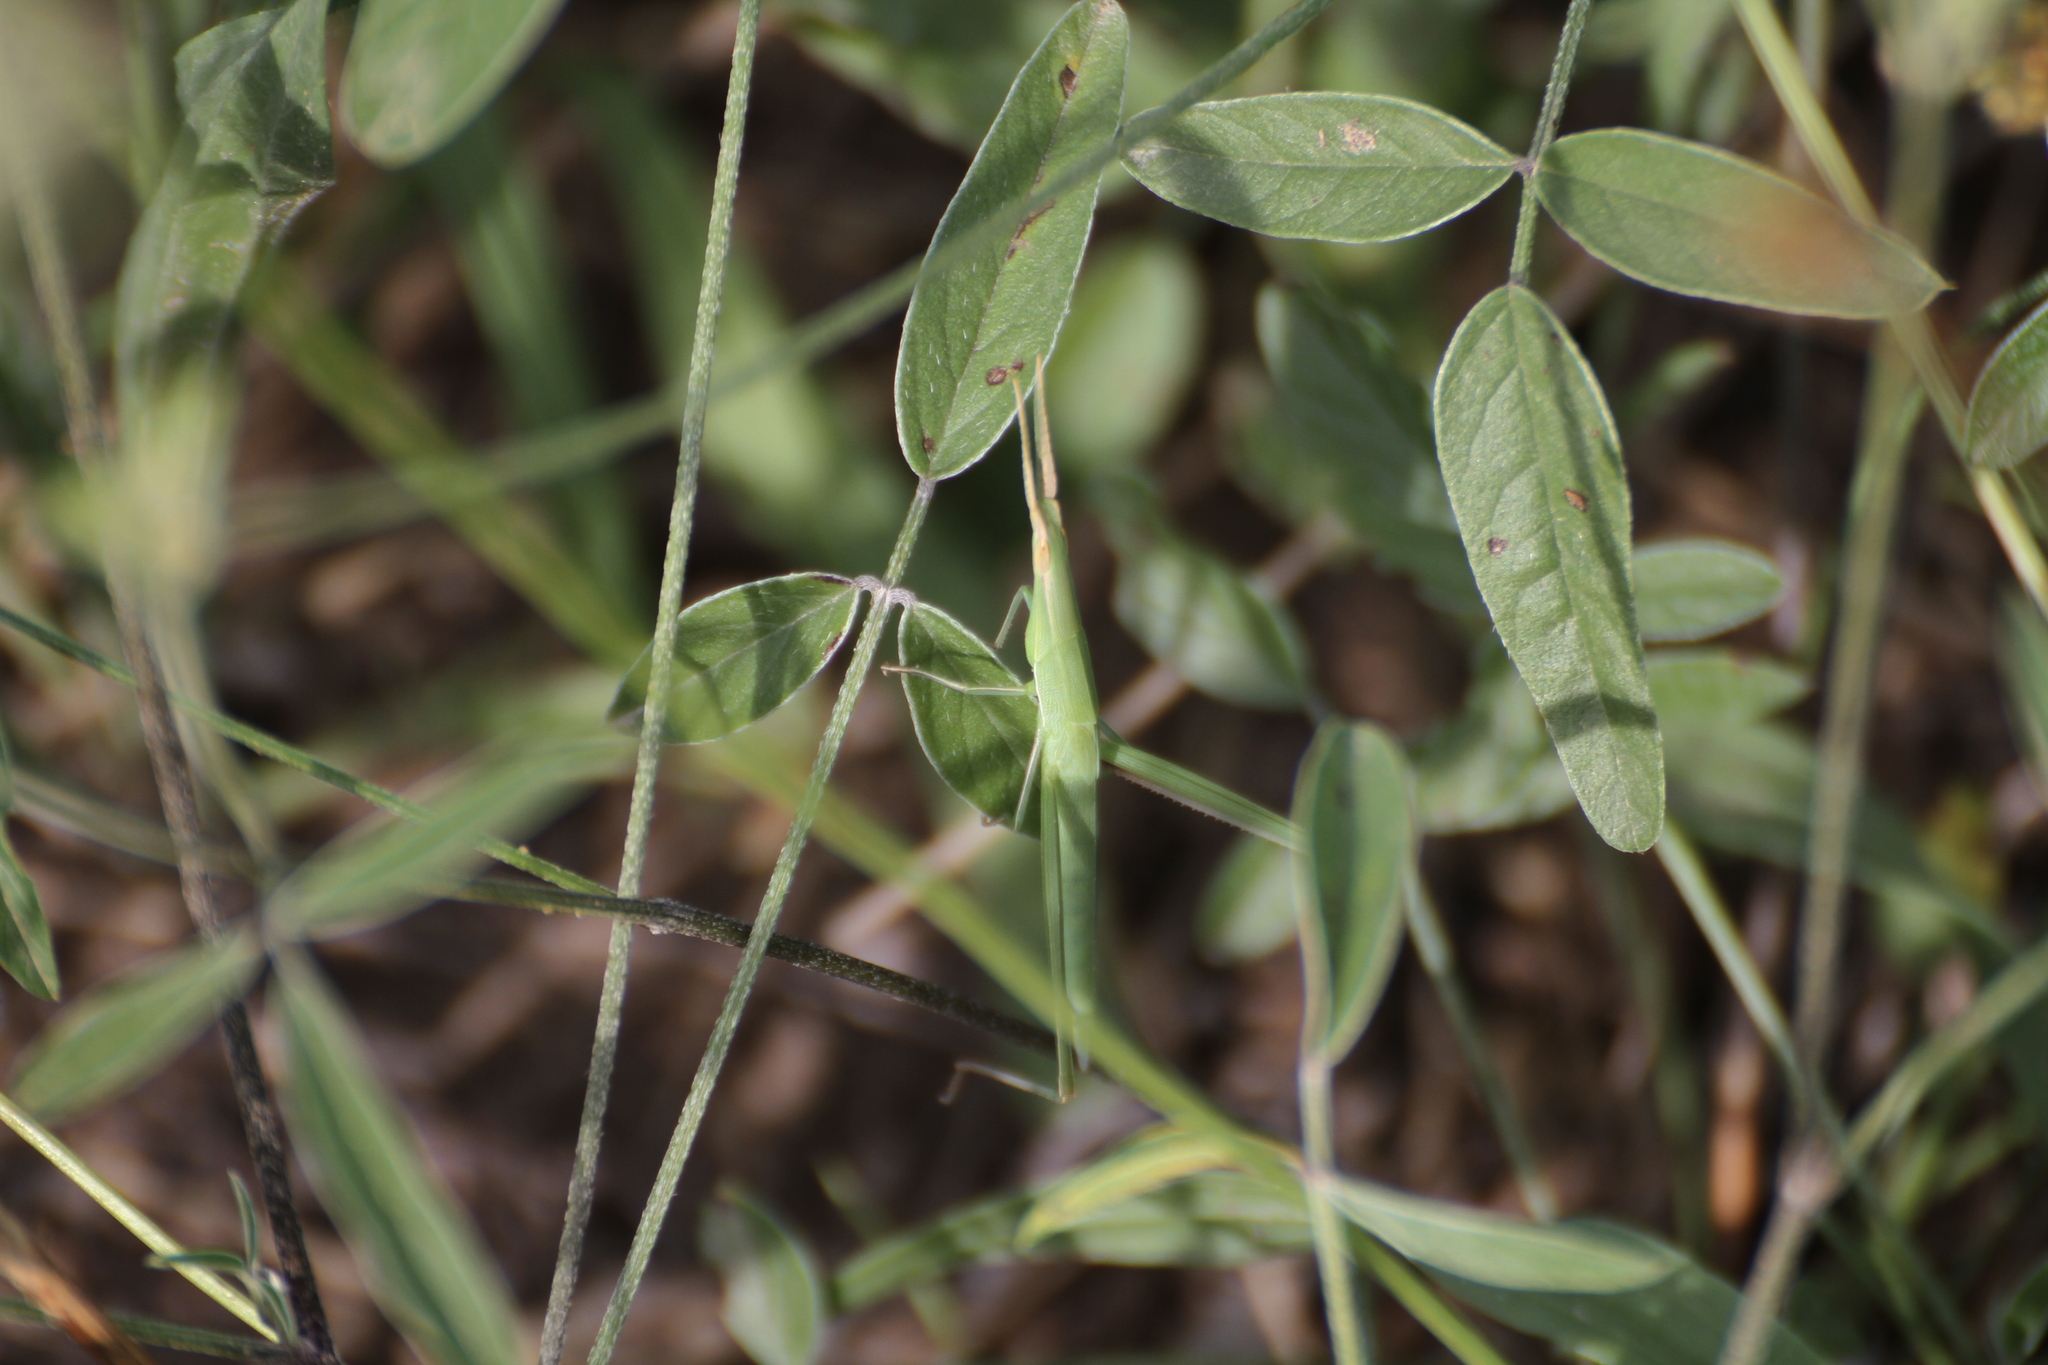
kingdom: Animalia
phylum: Arthropoda
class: Insecta
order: Orthoptera
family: Acrididae
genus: Acrida
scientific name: Acrida ungarica
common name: Common cone-headed grasshopper
